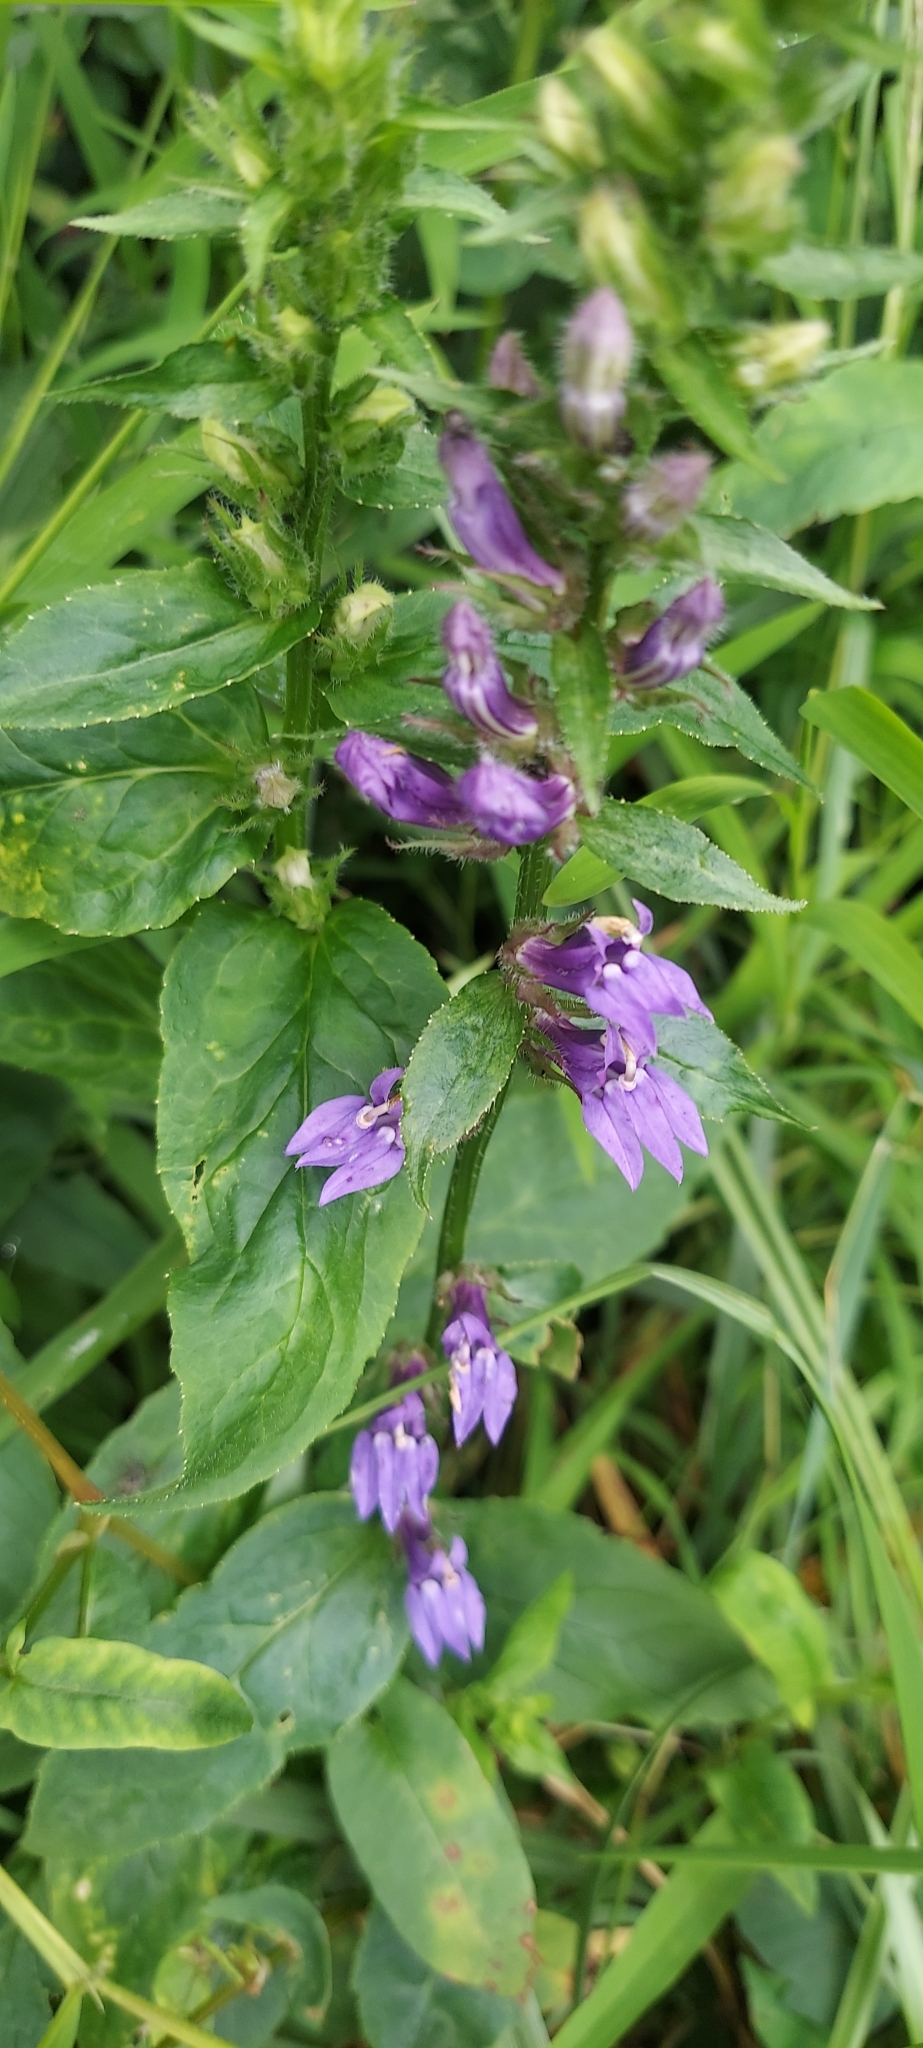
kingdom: Plantae
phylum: Tracheophyta
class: Magnoliopsida
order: Asterales
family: Campanulaceae
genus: Lobelia
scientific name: Lobelia siphilitica
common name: Great lobelia
